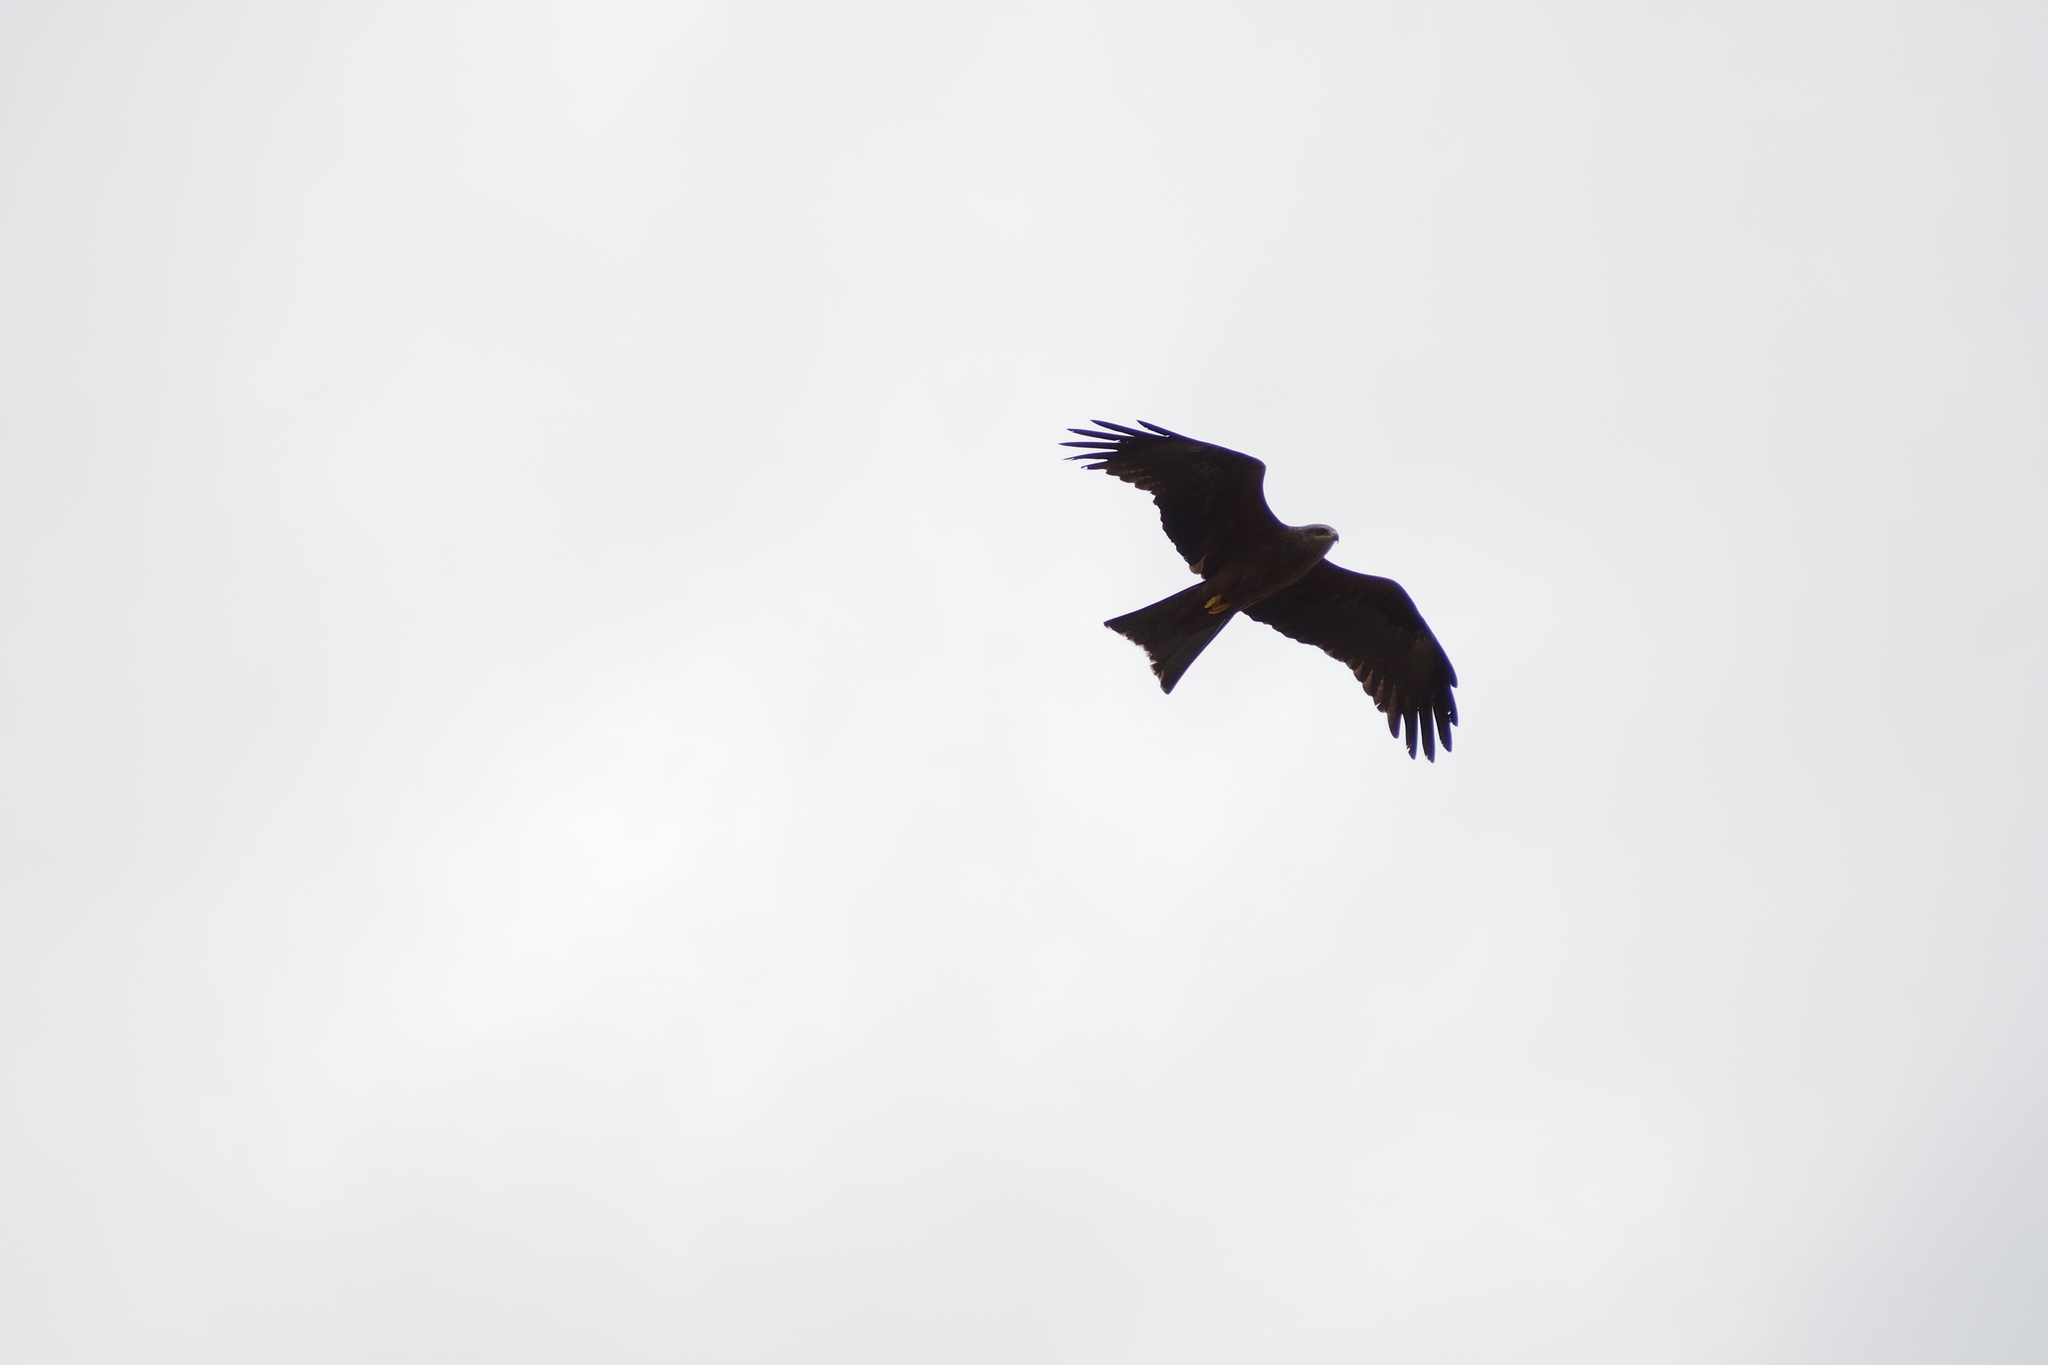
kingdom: Animalia
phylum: Chordata
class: Aves
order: Accipitriformes
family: Accipitridae
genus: Milvus
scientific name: Milvus migrans
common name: Black kite
